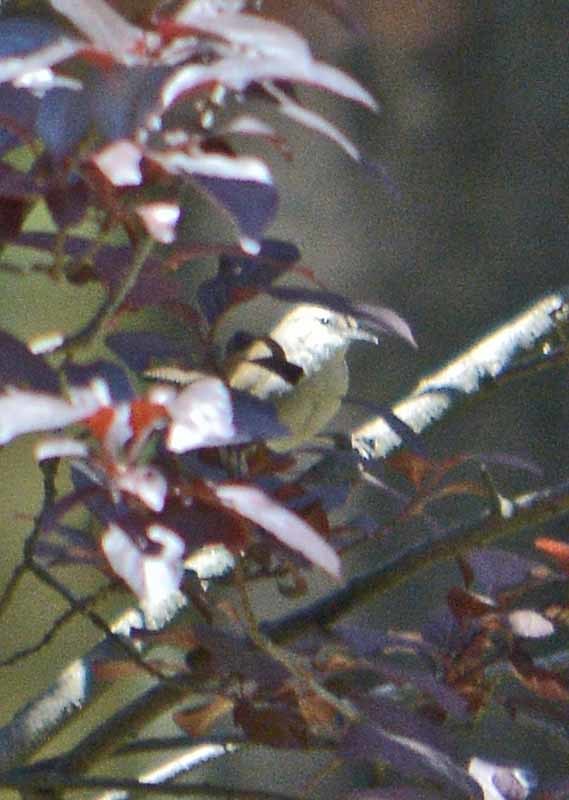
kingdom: Animalia
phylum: Chordata
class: Aves
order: Passeriformes
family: Troglodytidae
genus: Thryomanes
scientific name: Thryomanes bewickii
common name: Bewick's wren
